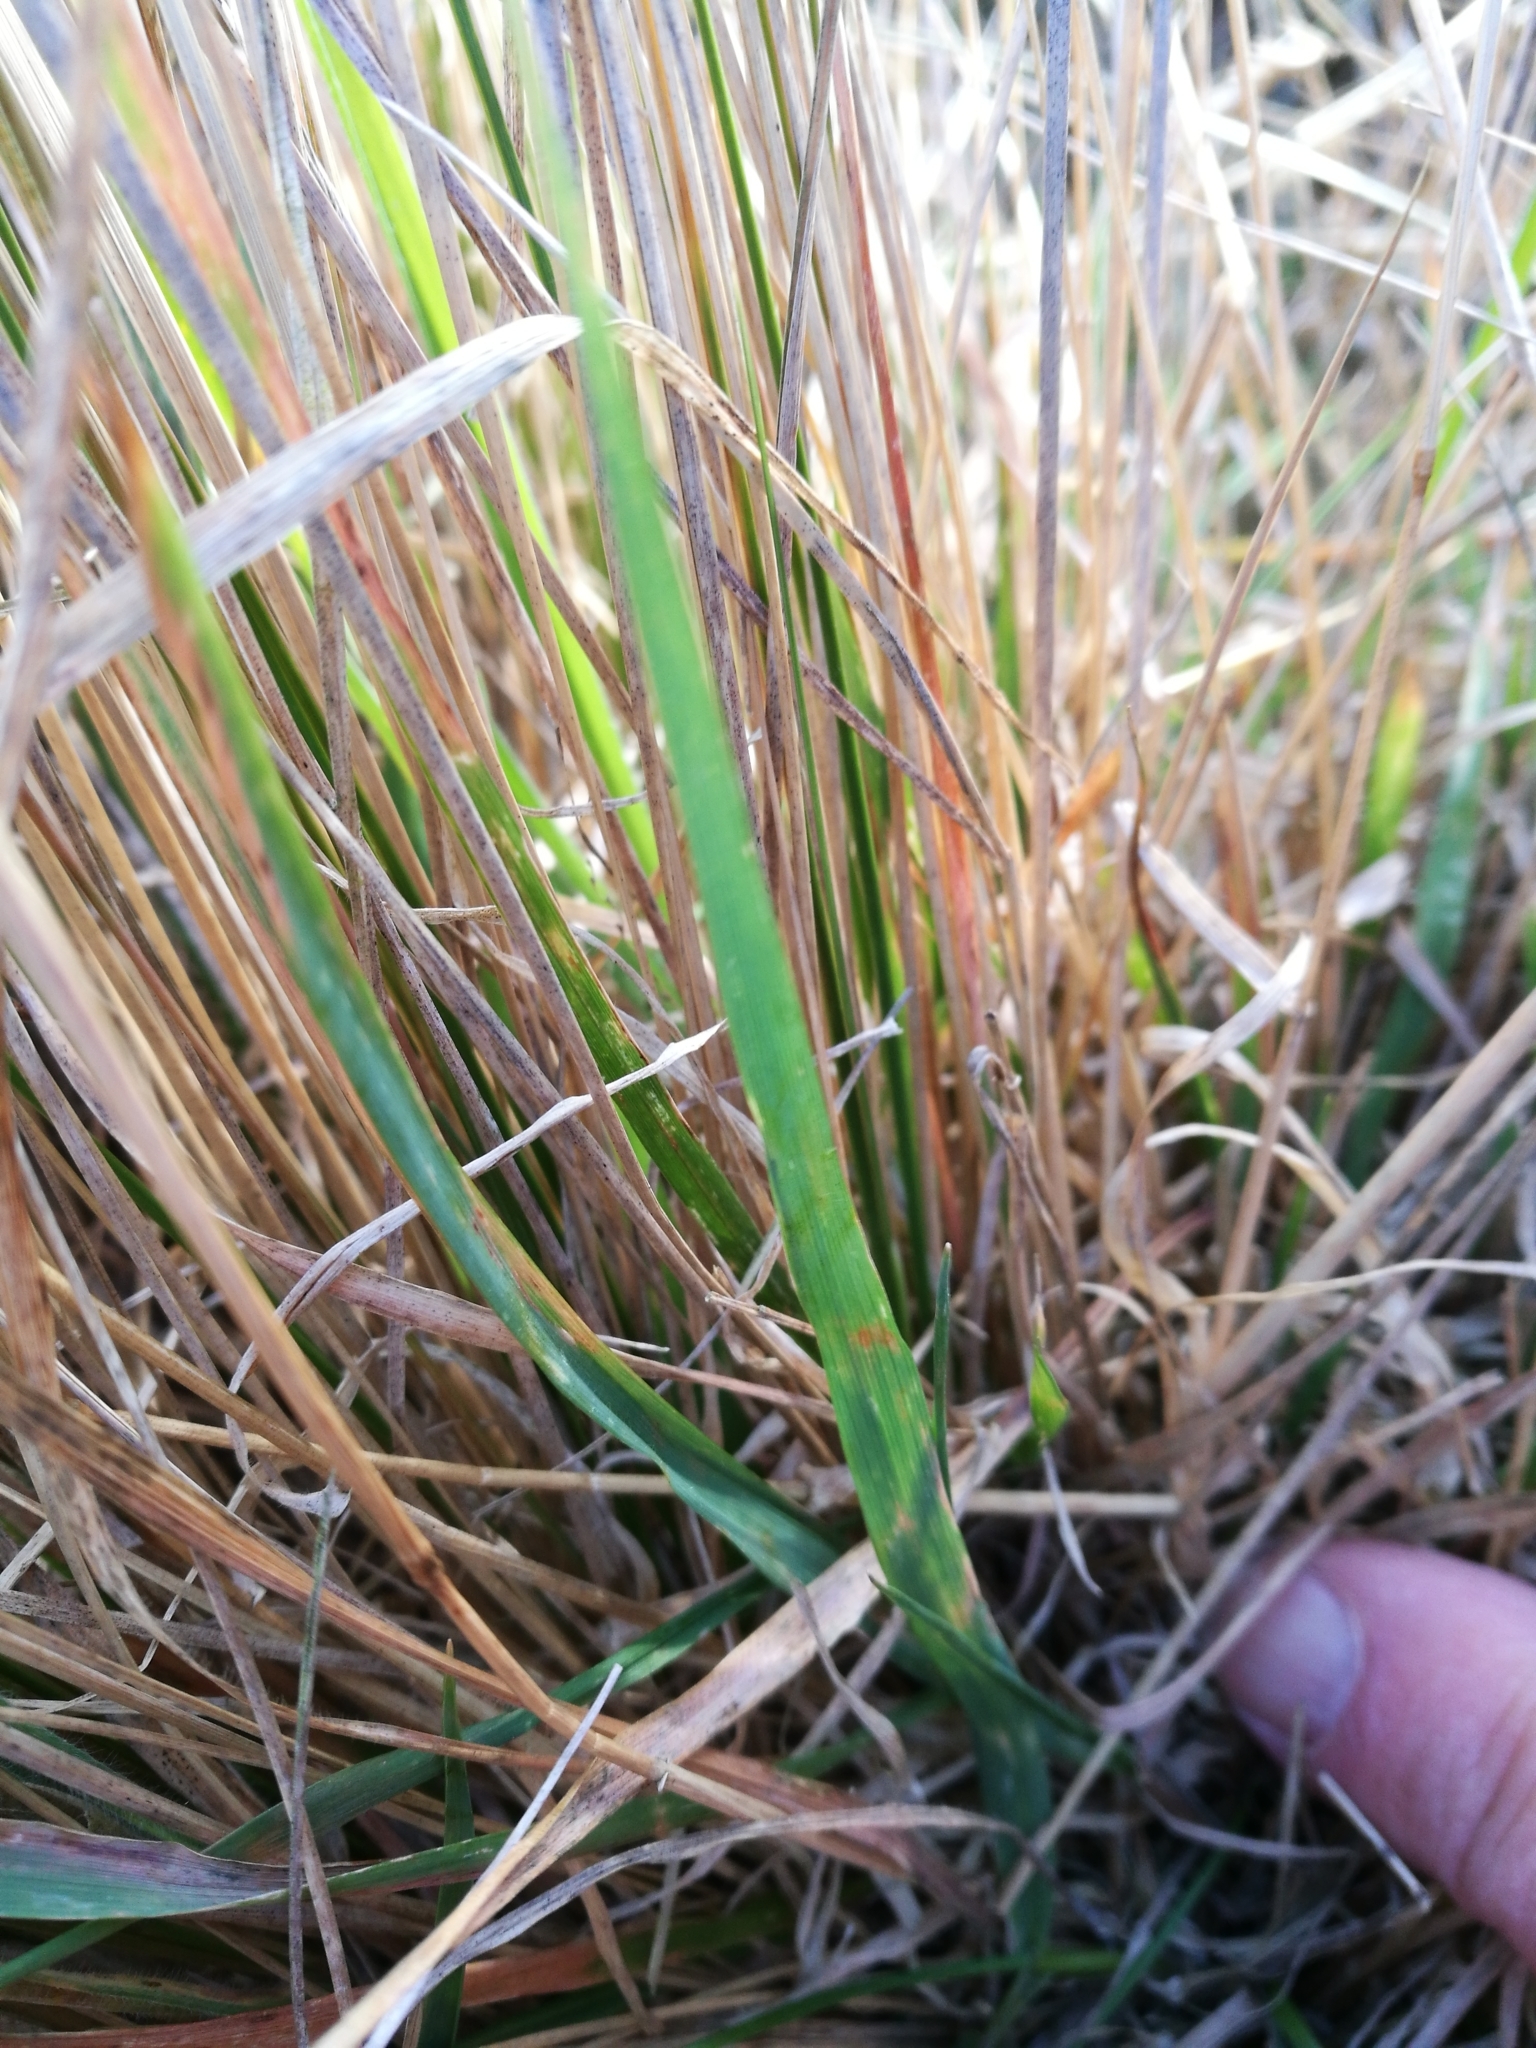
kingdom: Plantae
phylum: Tracheophyta
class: Liliopsida
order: Poales
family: Poaceae
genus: Poa
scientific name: Poa cita
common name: Silver tussock
